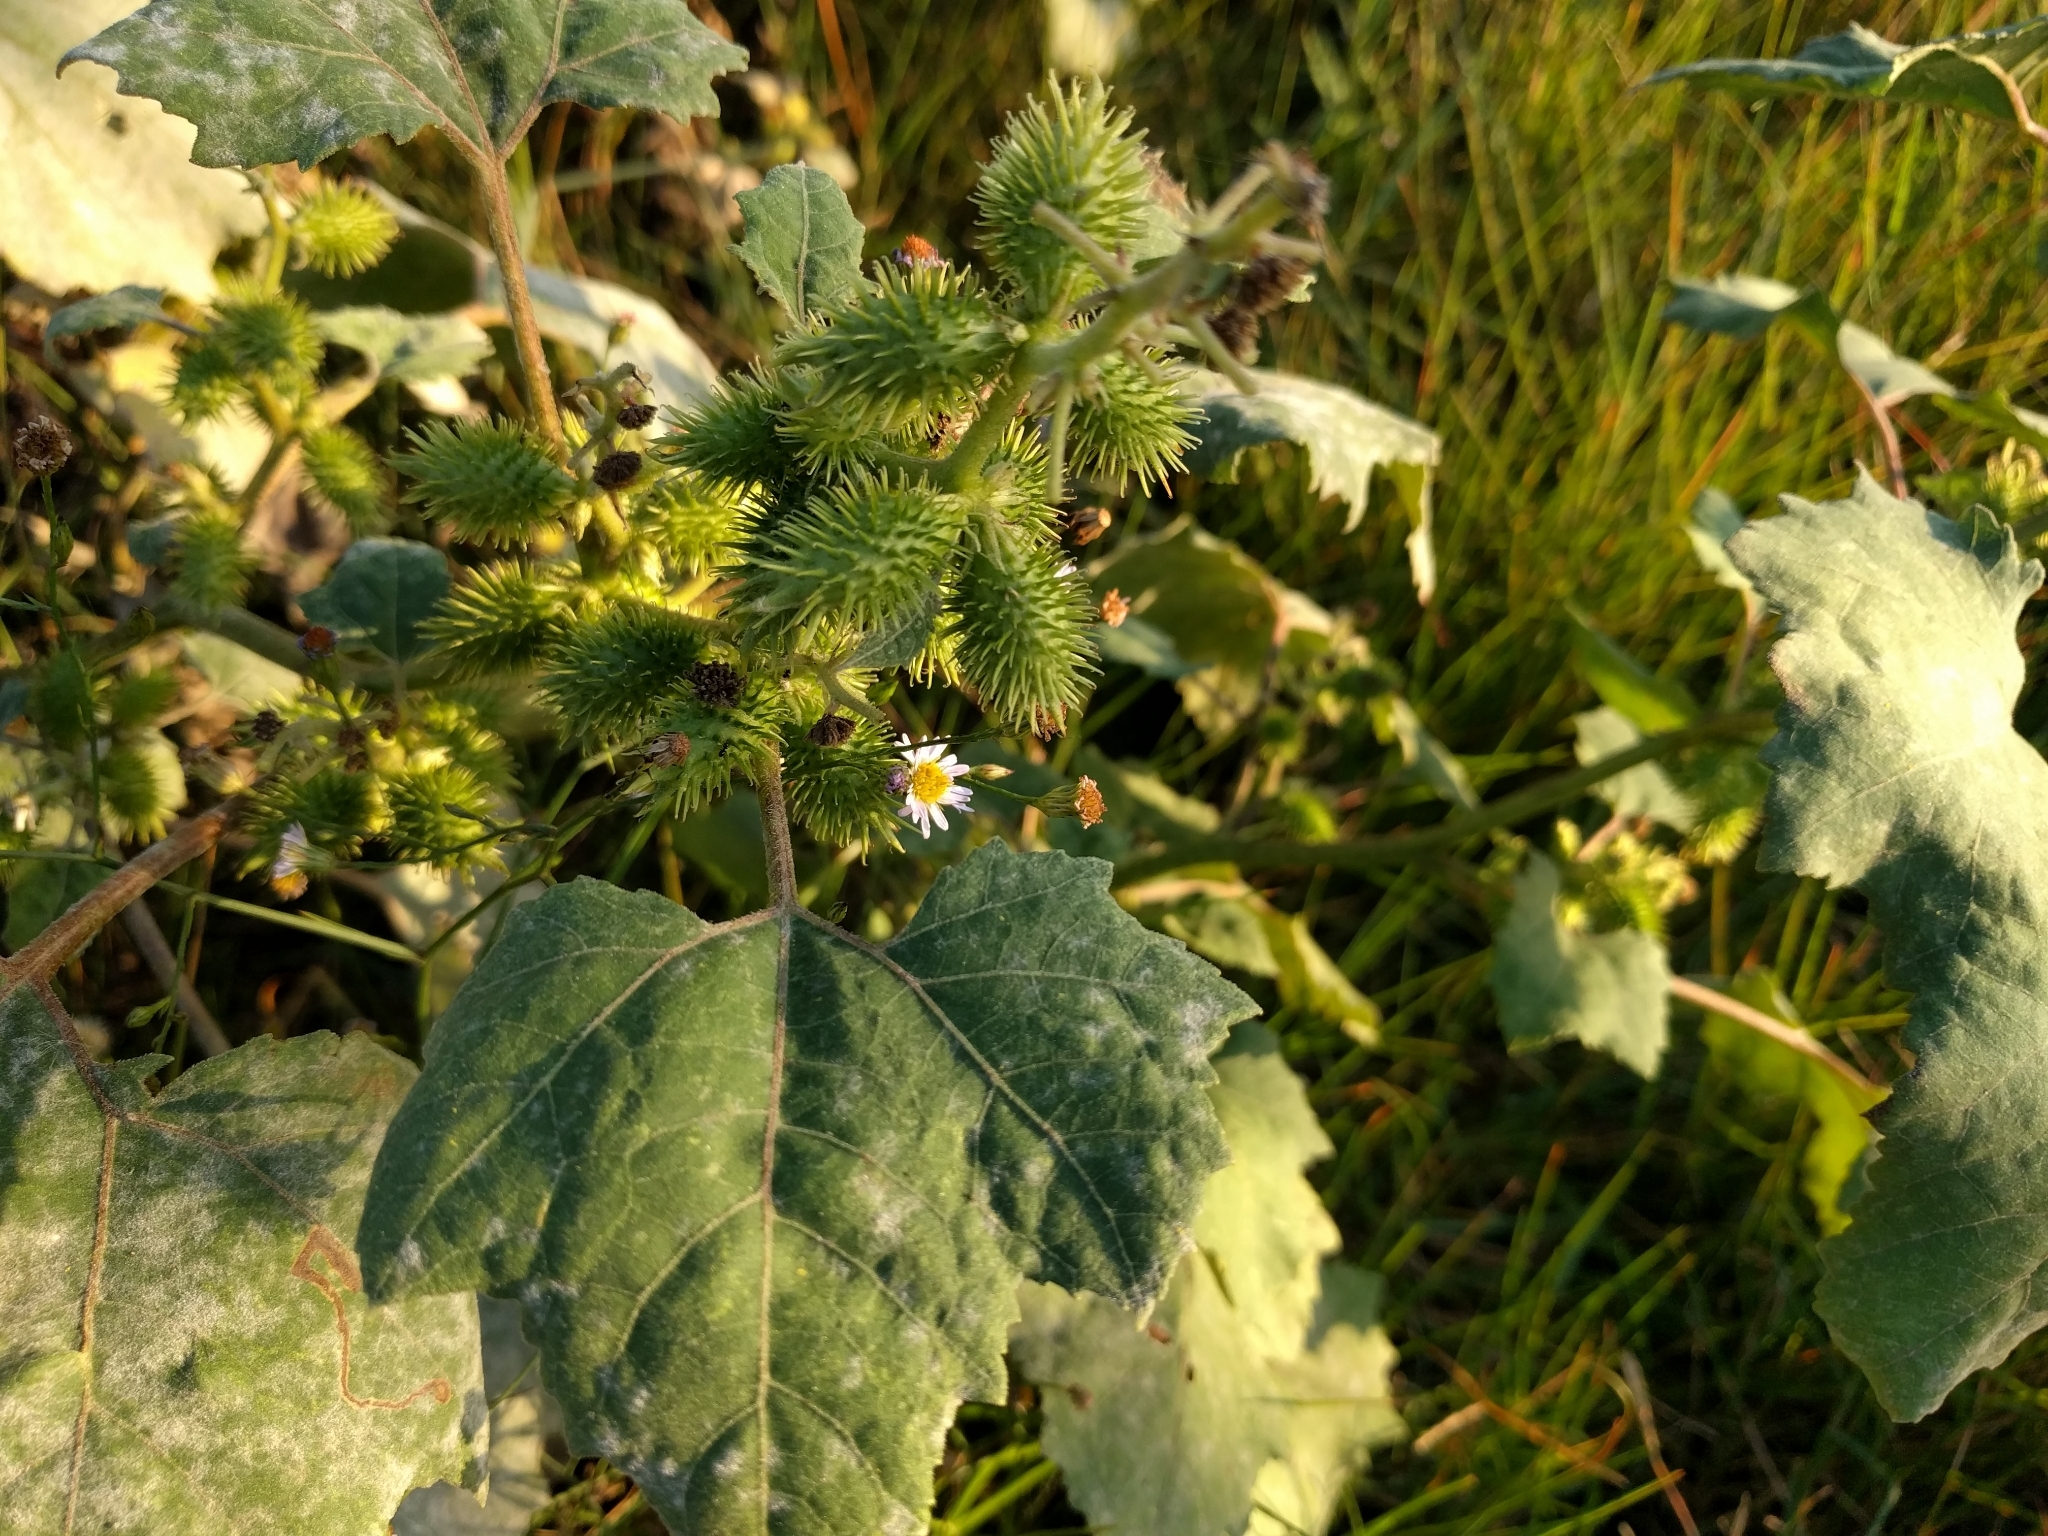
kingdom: Plantae
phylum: Tracheophyta
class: Magnoliopsida
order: Asterales
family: Asteraceae
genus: Xanthium
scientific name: Xanthium strumarium
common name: Rough cocklebur
